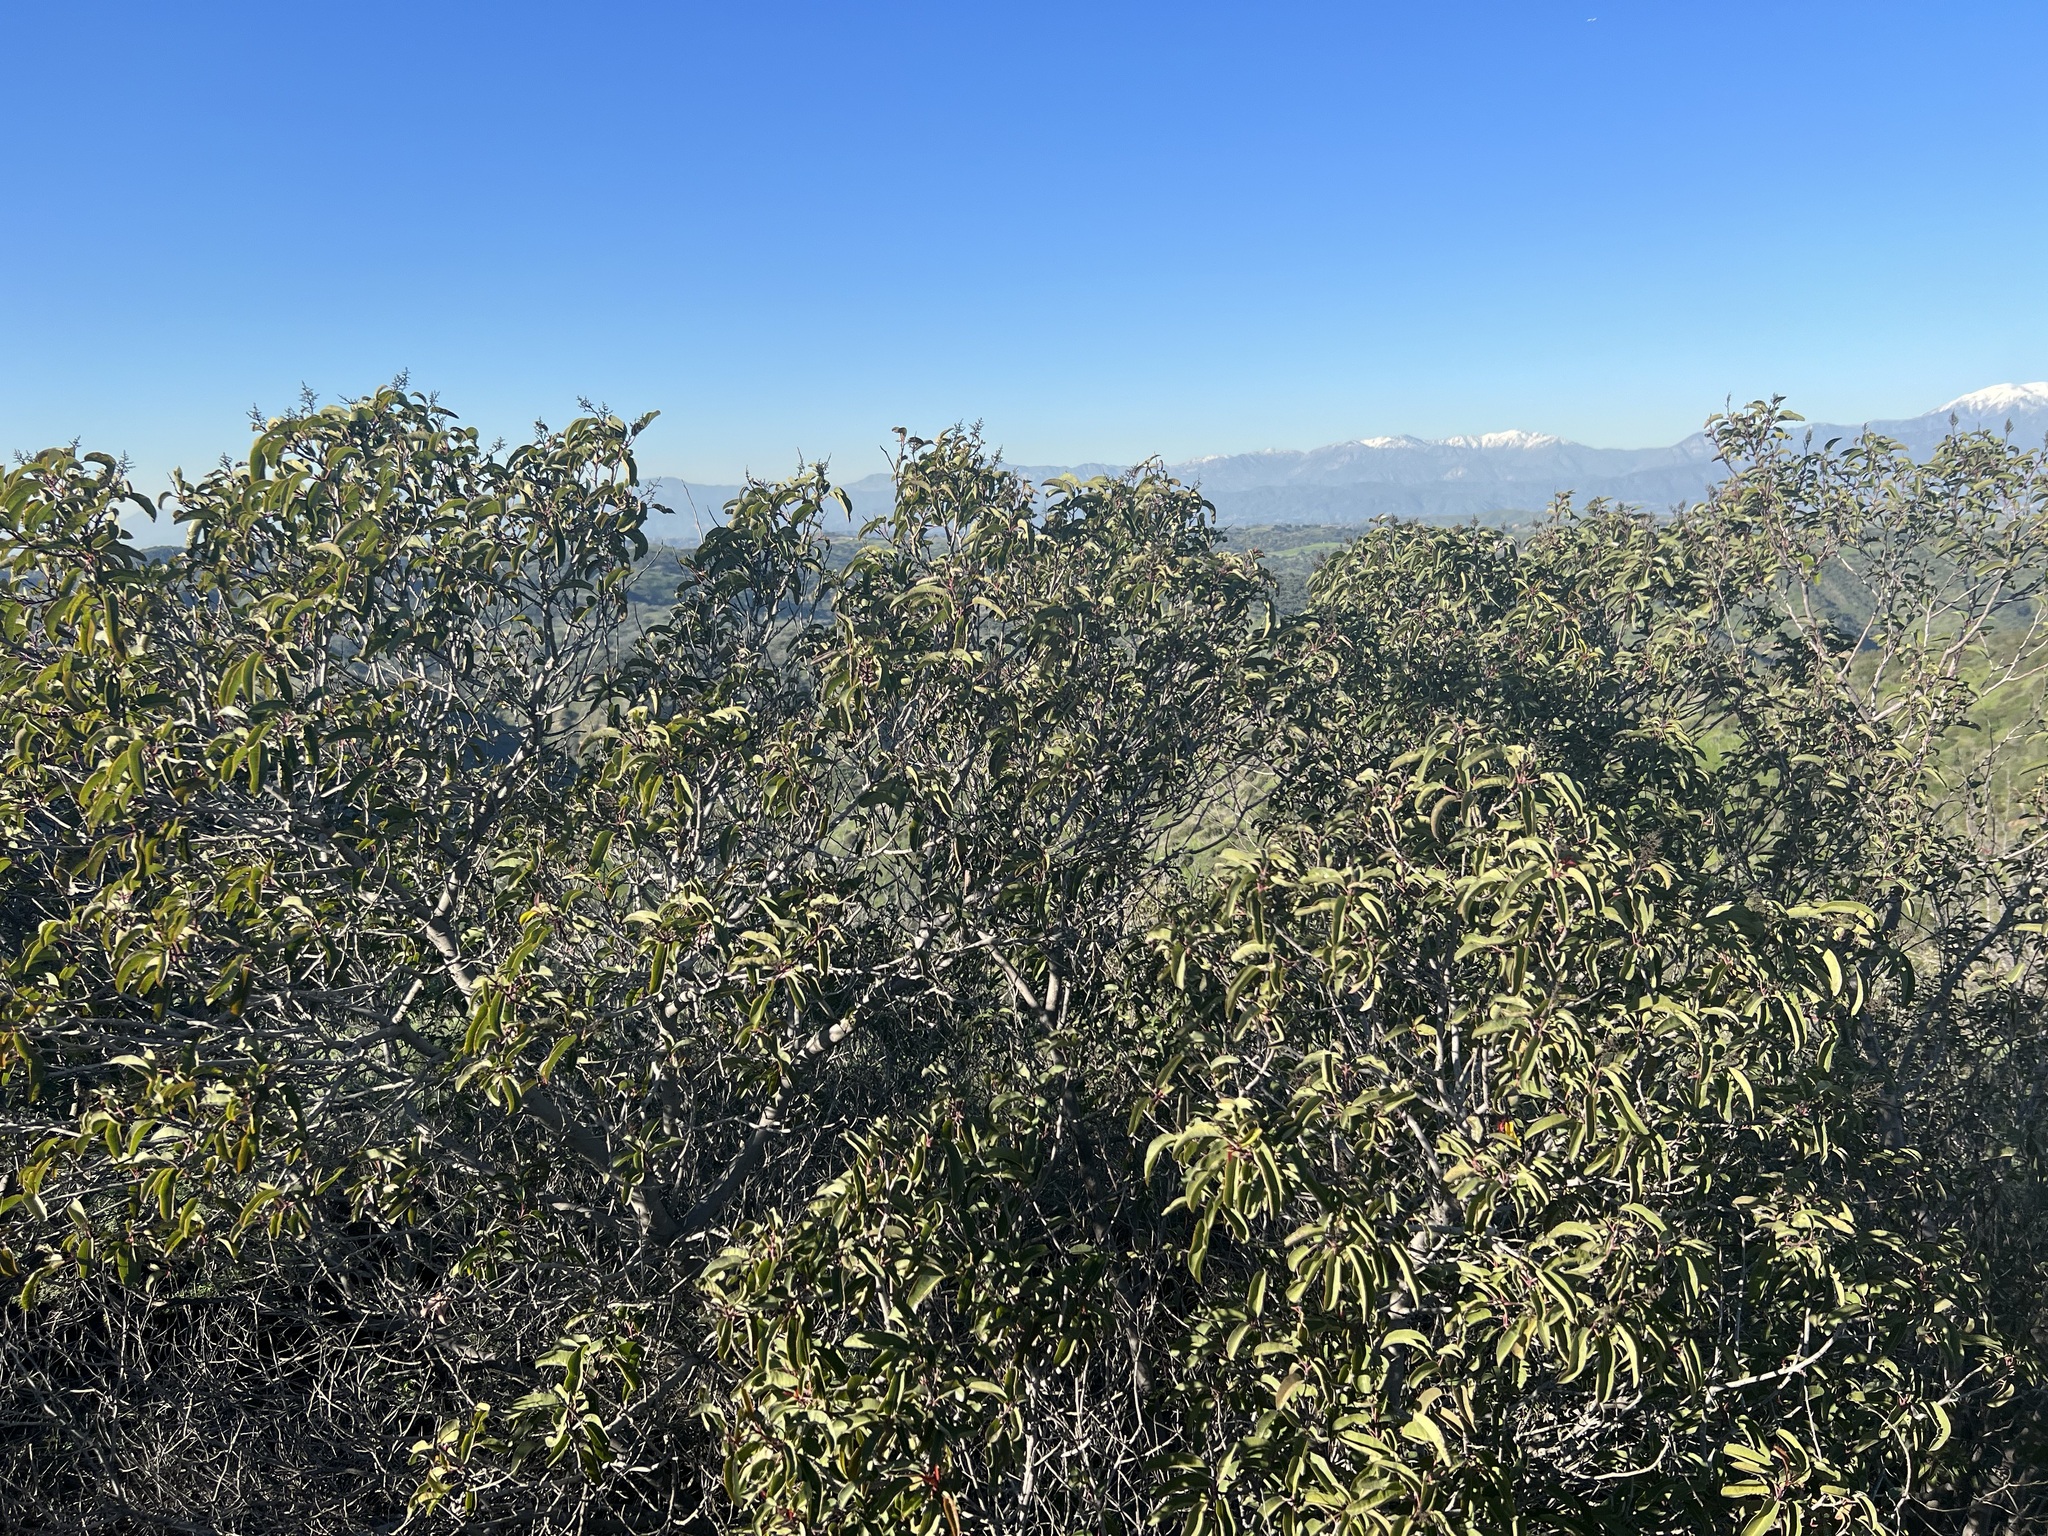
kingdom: Plantae
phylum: Tracheophyta
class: Magnoliopsida
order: Sapindales
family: Anacardiaceae
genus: Malosma
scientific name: Malosma laurina
